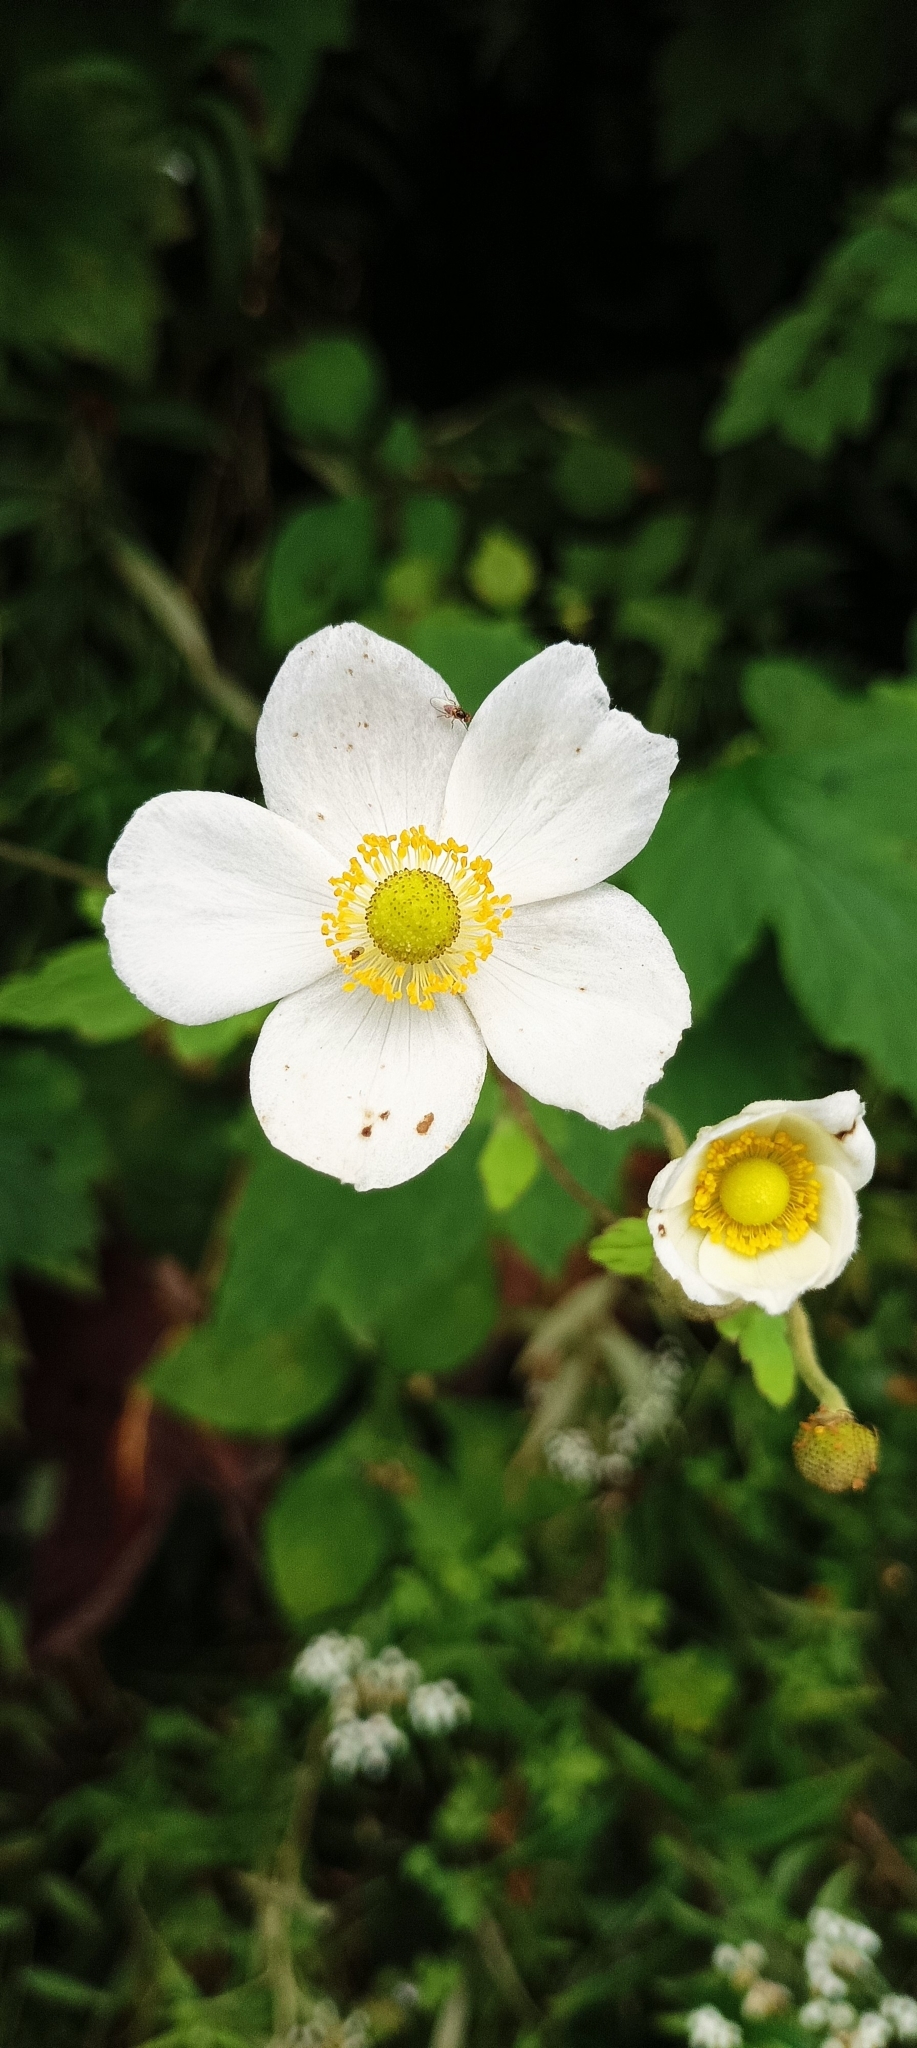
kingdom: Plantae
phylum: Tracheophyta
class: Magnoliopsida
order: Ranunculales
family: Ranunculaceae
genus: Eriocapitella
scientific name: Eriocapitella vitifolia
